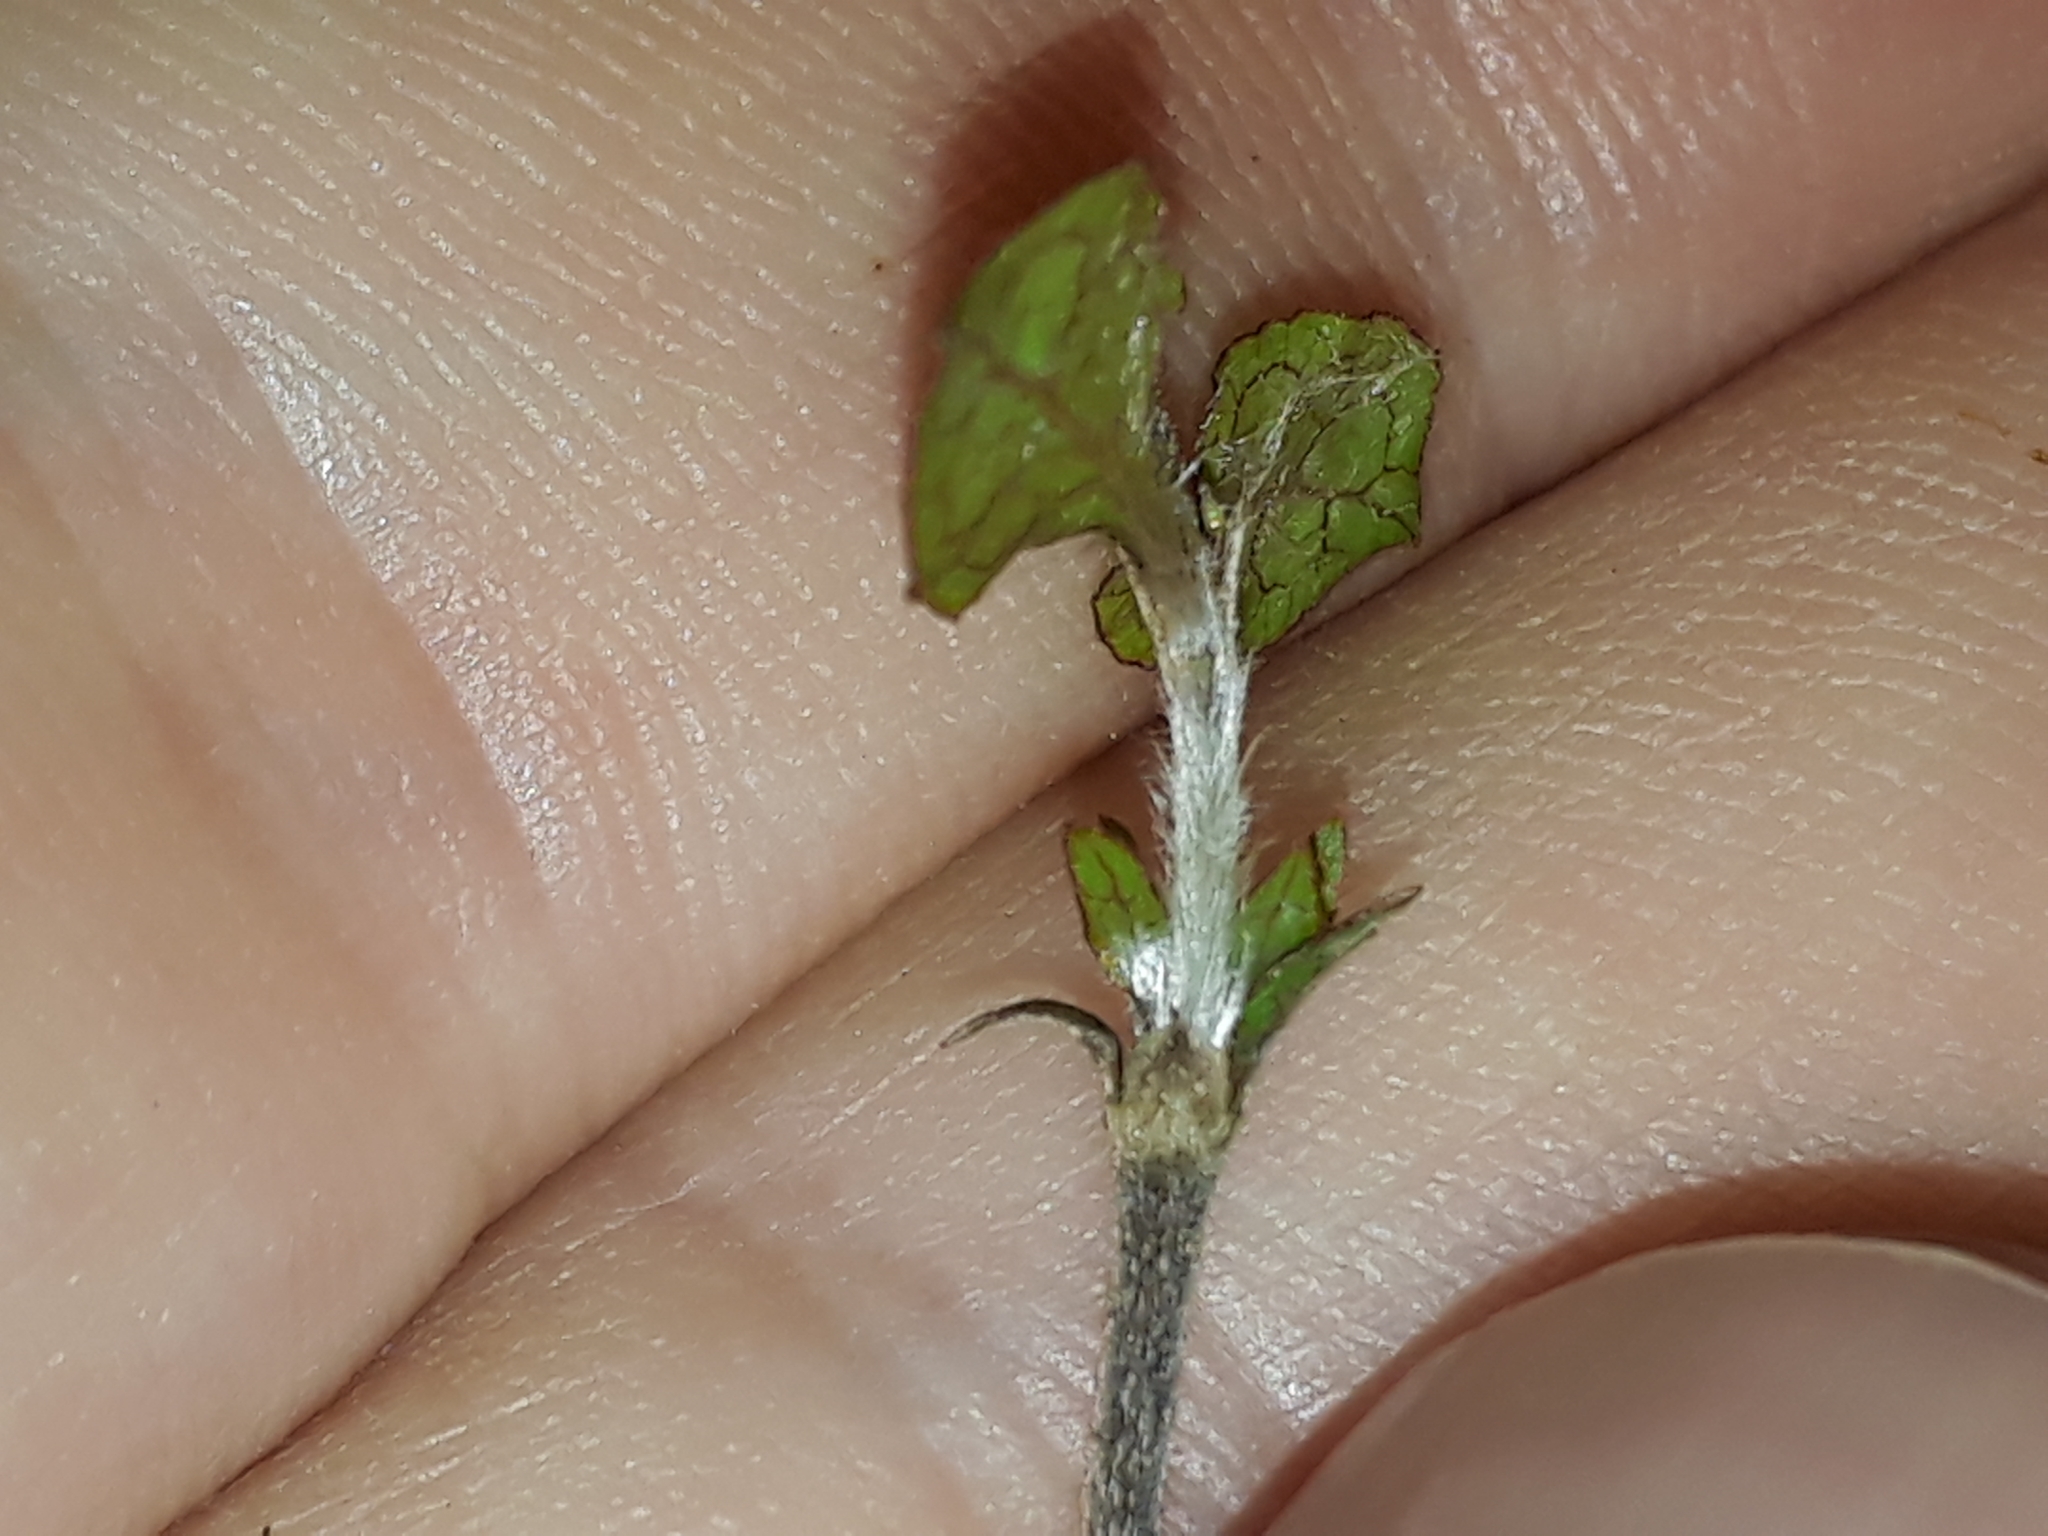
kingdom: Plantae
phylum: Tracheophyta
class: Magnoliopsida
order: Gentianales
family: Rubiaceae
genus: Coprosma
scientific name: Coprosma areolata
